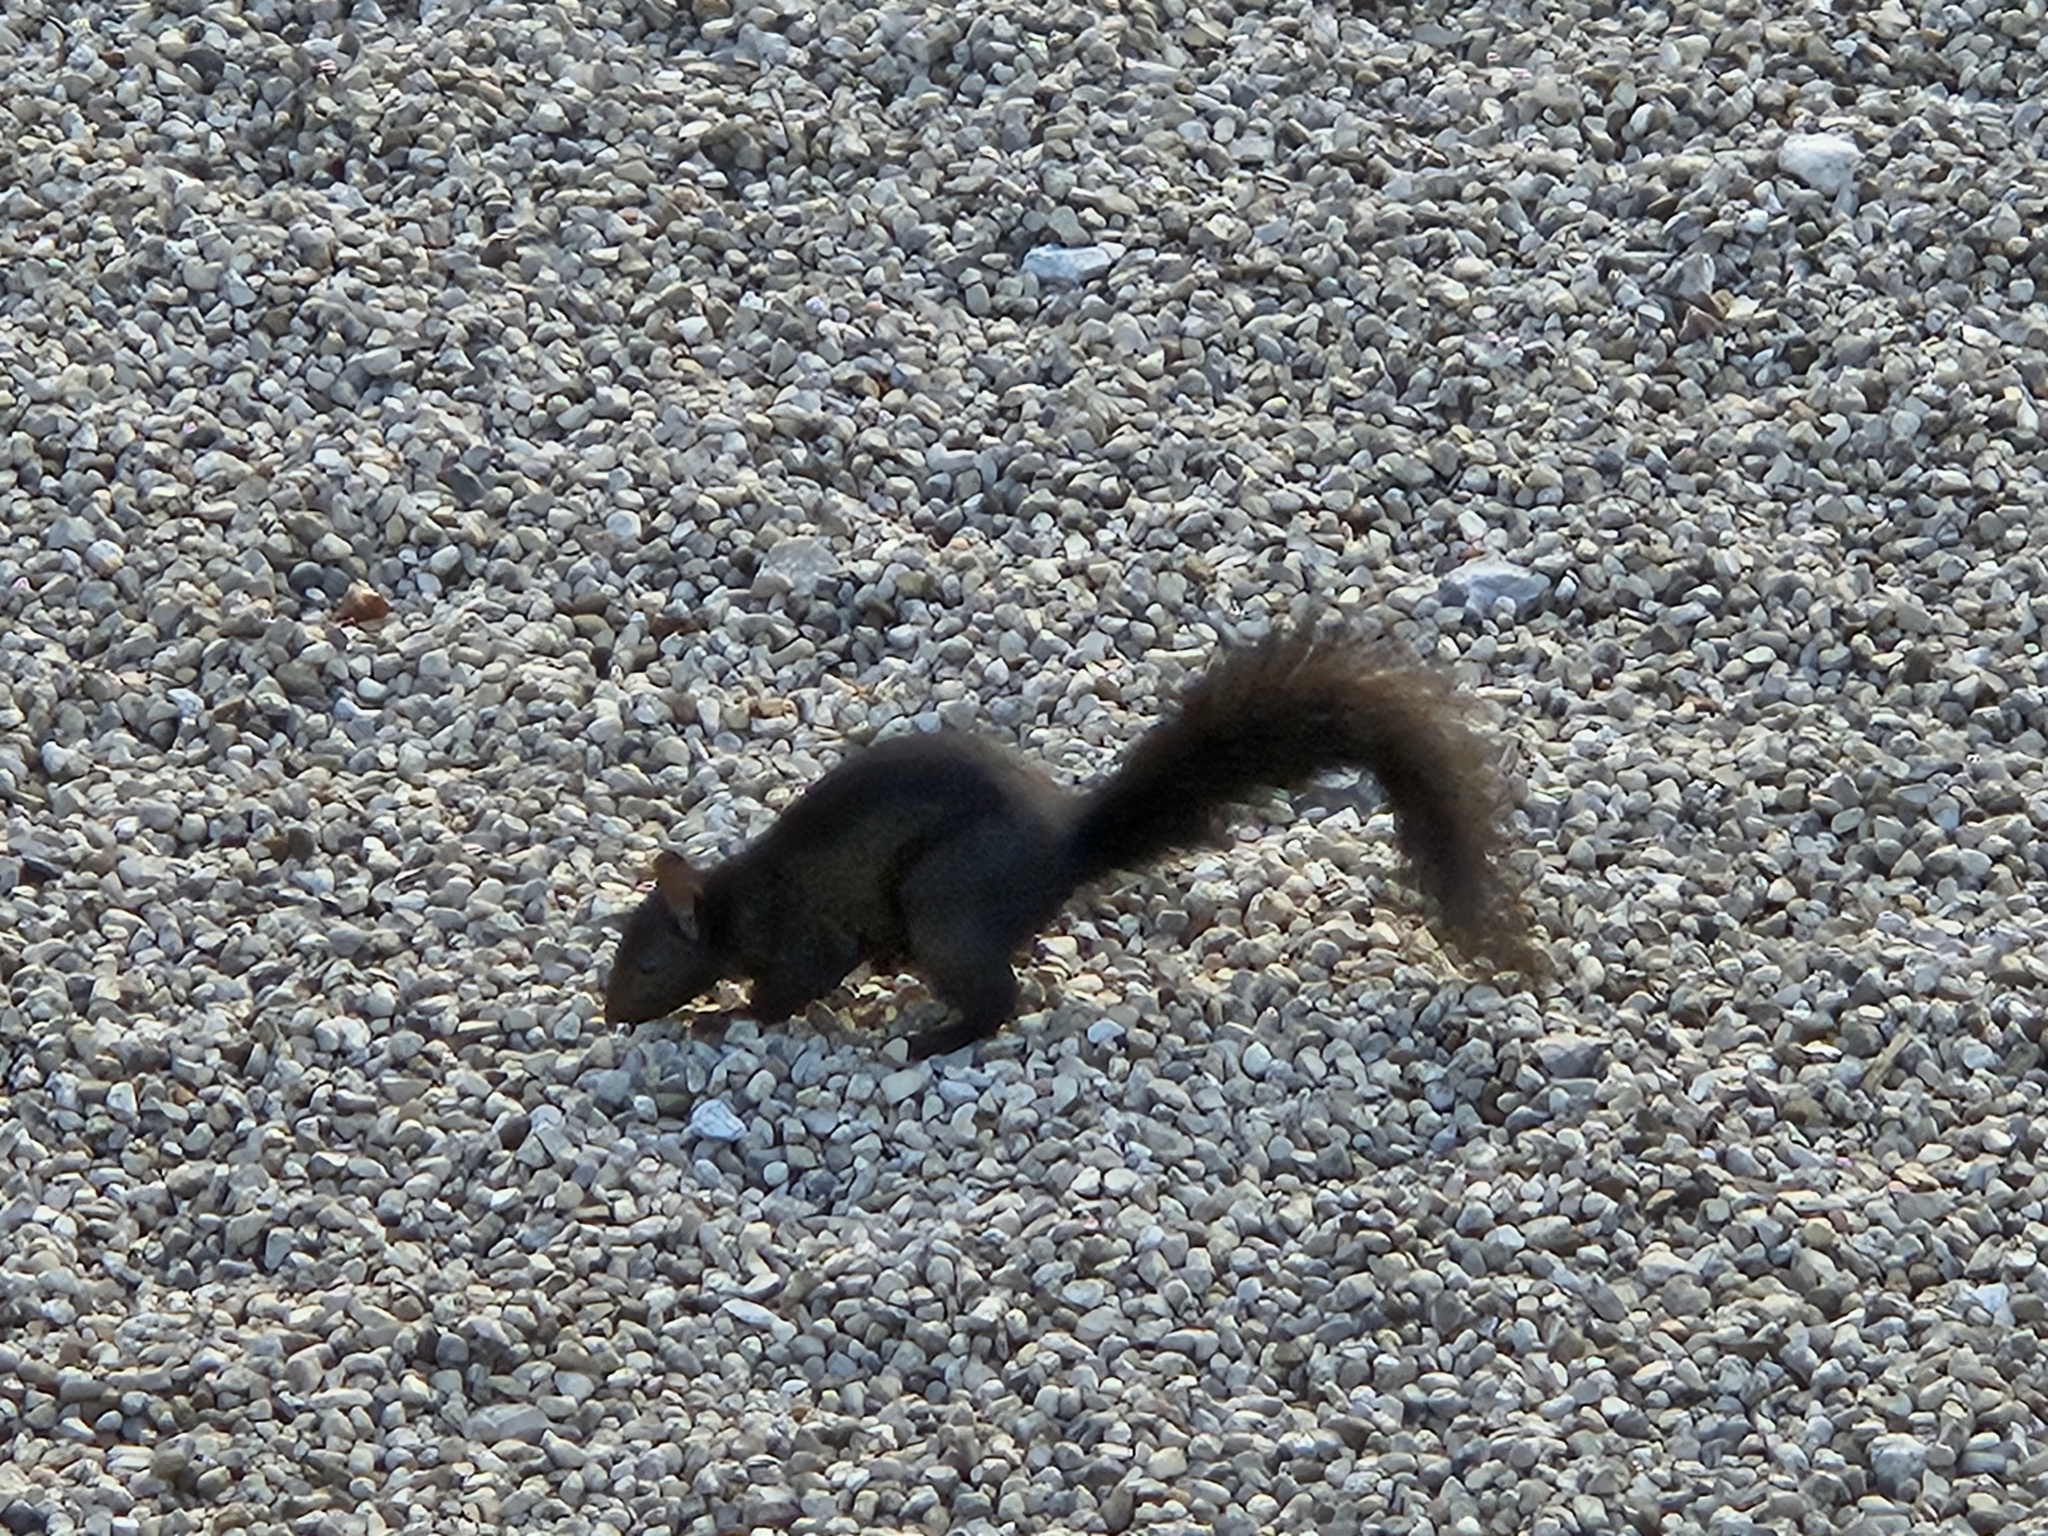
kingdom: Animalia
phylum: Chordata
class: Mammalia
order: Rodentia
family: Sciuridae
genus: Sciurus
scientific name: Sciurus carolinensis
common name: Eastern gray squirrel
